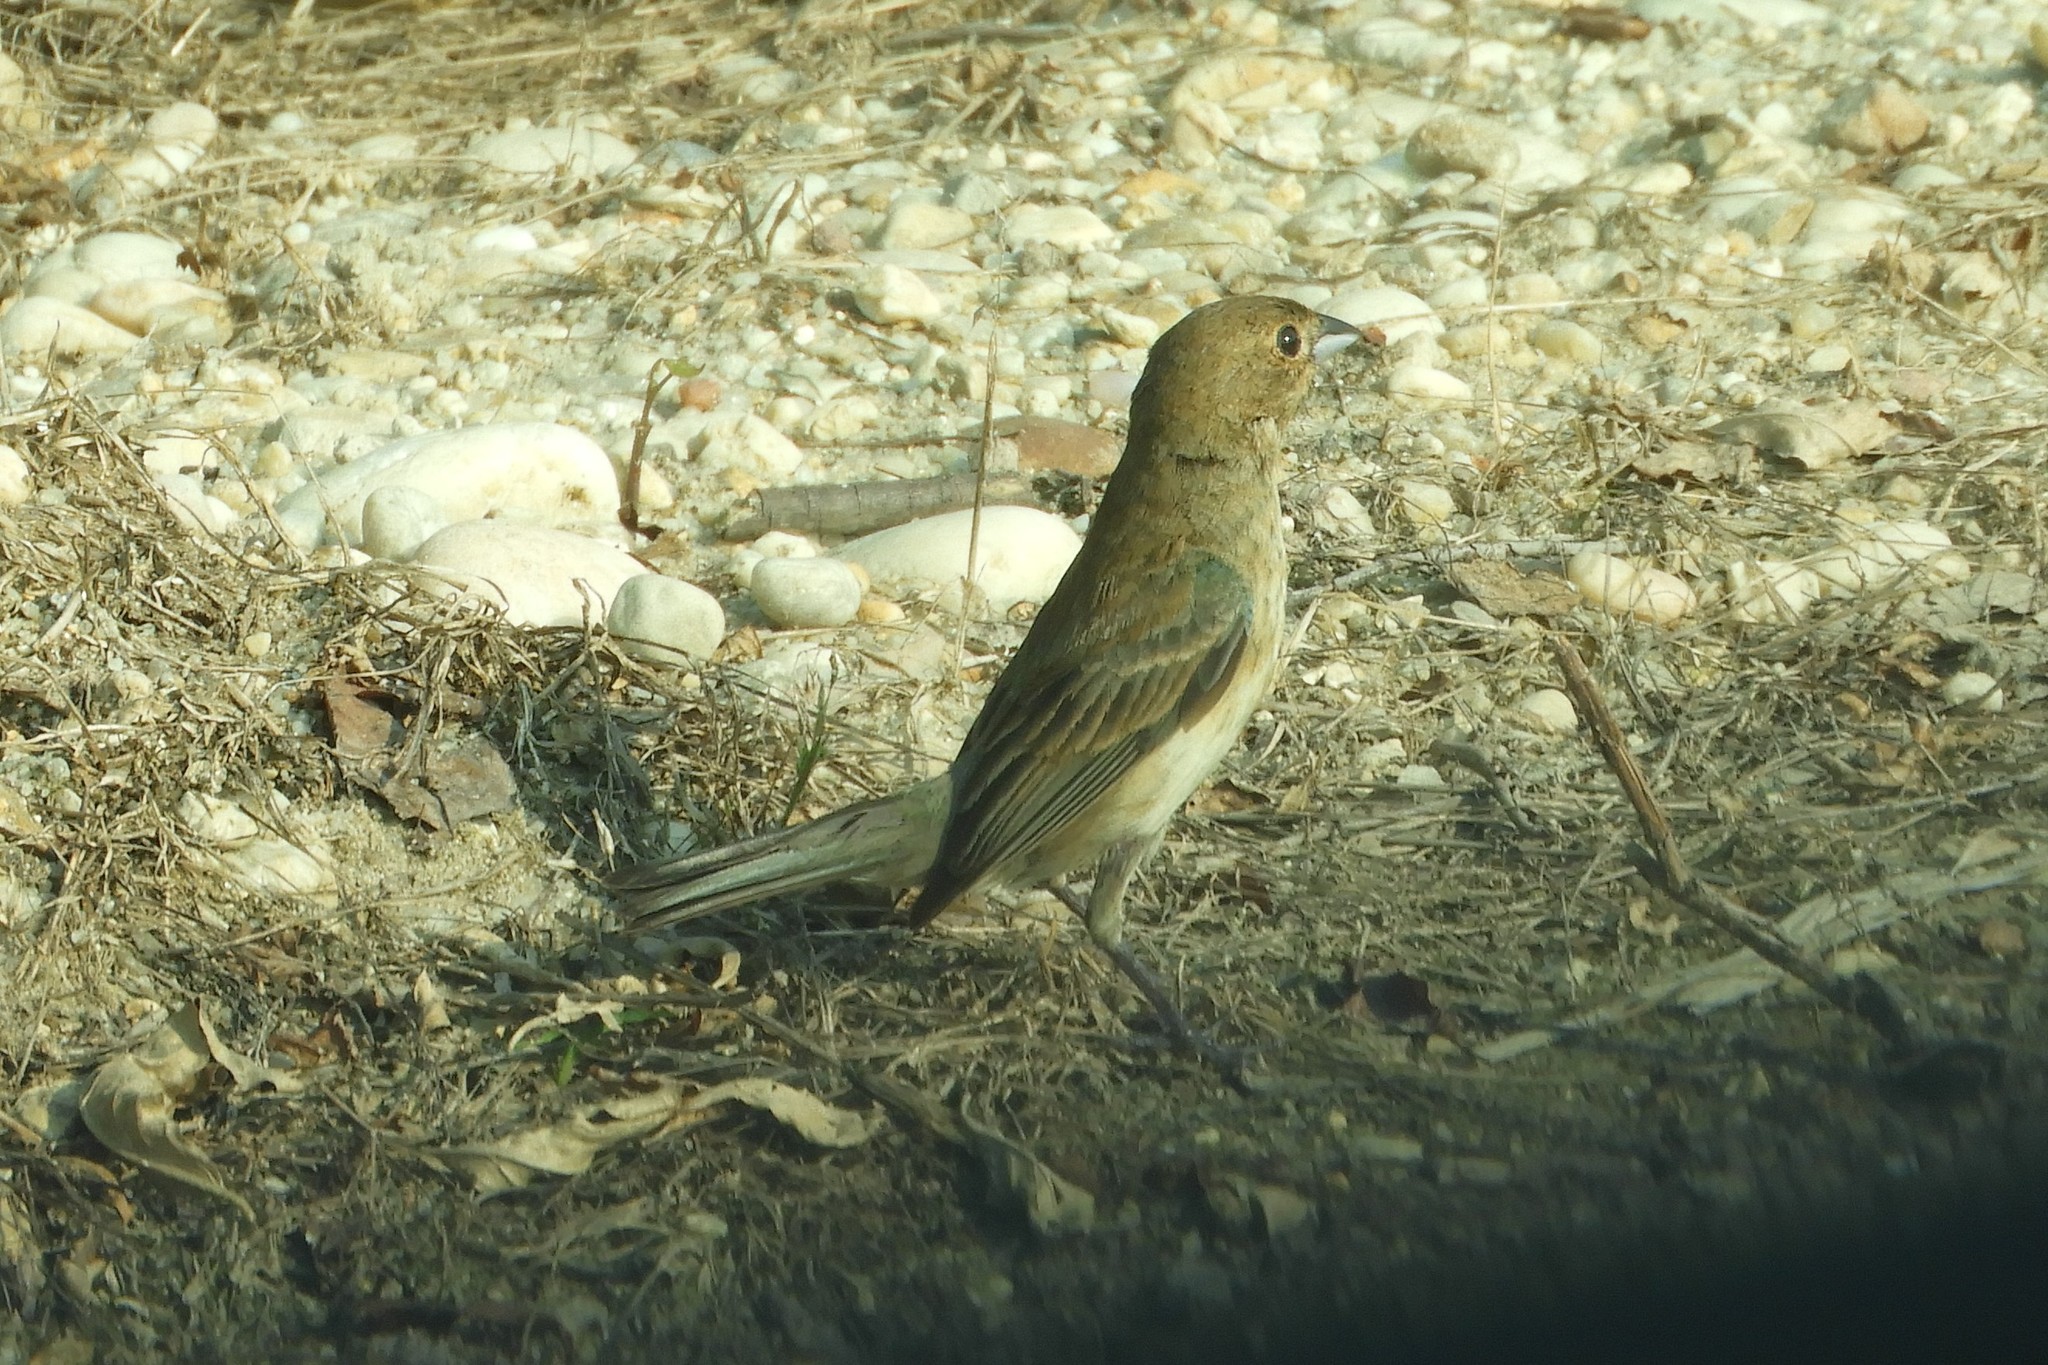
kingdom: Animalia
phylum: Chordata
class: Aves
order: Passeriformes
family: Cardinalidae
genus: Passerina
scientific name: Passerina cyanea
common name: Indigo bunting
